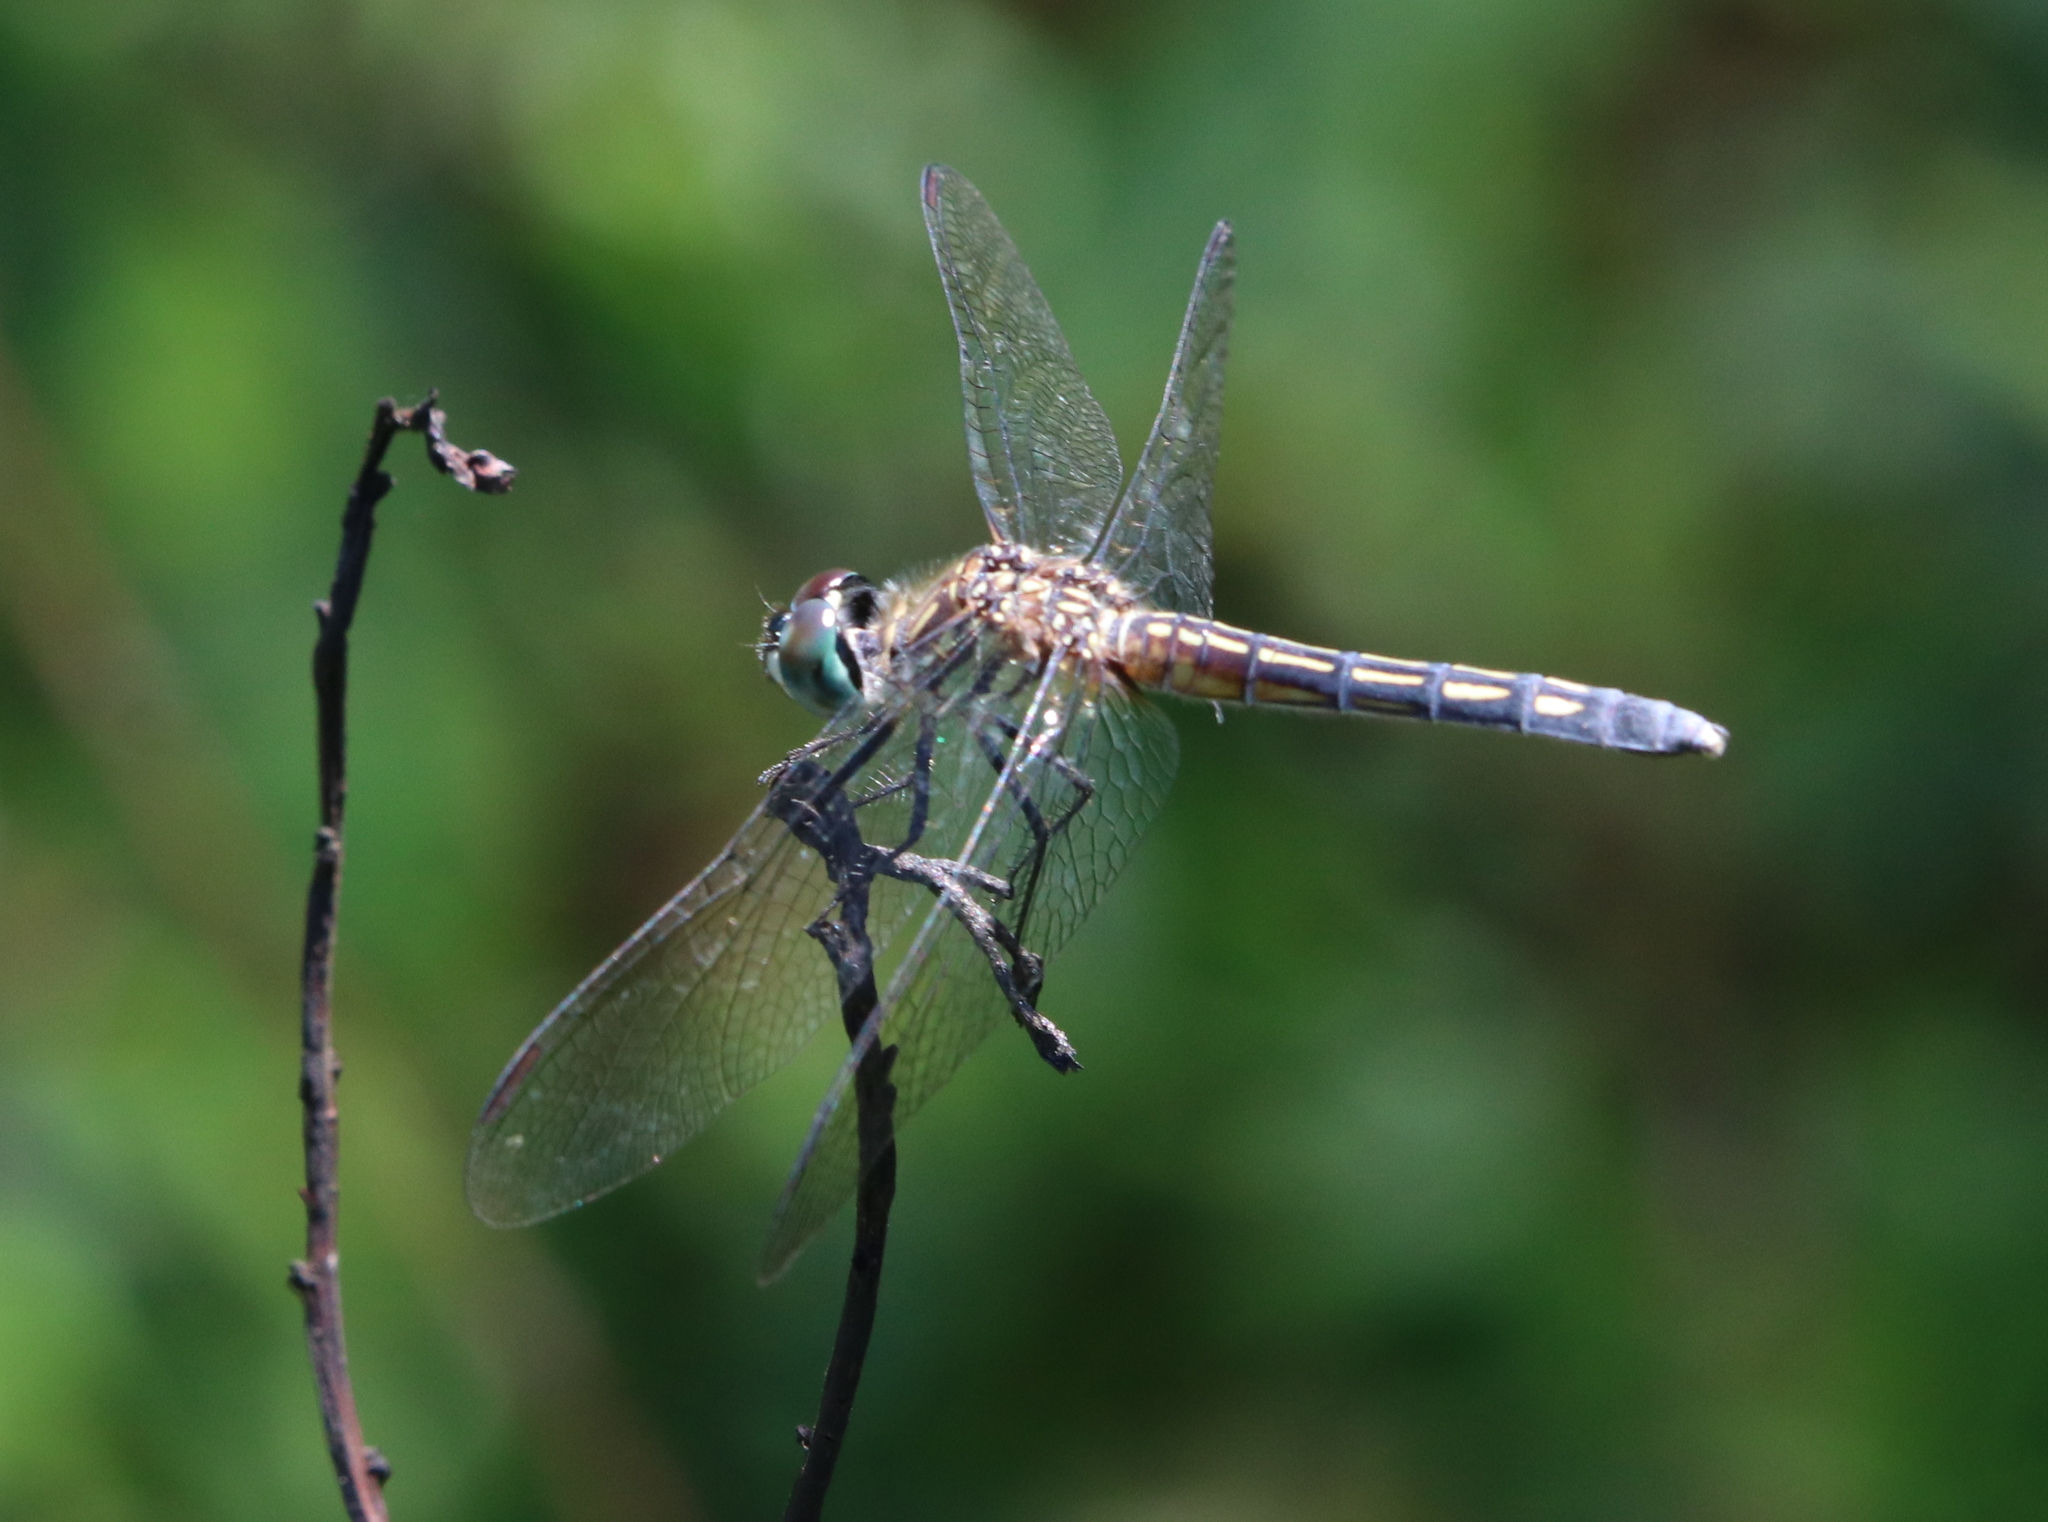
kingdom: Animalia
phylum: Arthropoda
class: Insecta
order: Odonata
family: Libellulidae
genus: Pachydiplax
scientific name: Pachydiplax longipennis
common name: Blue dasher
